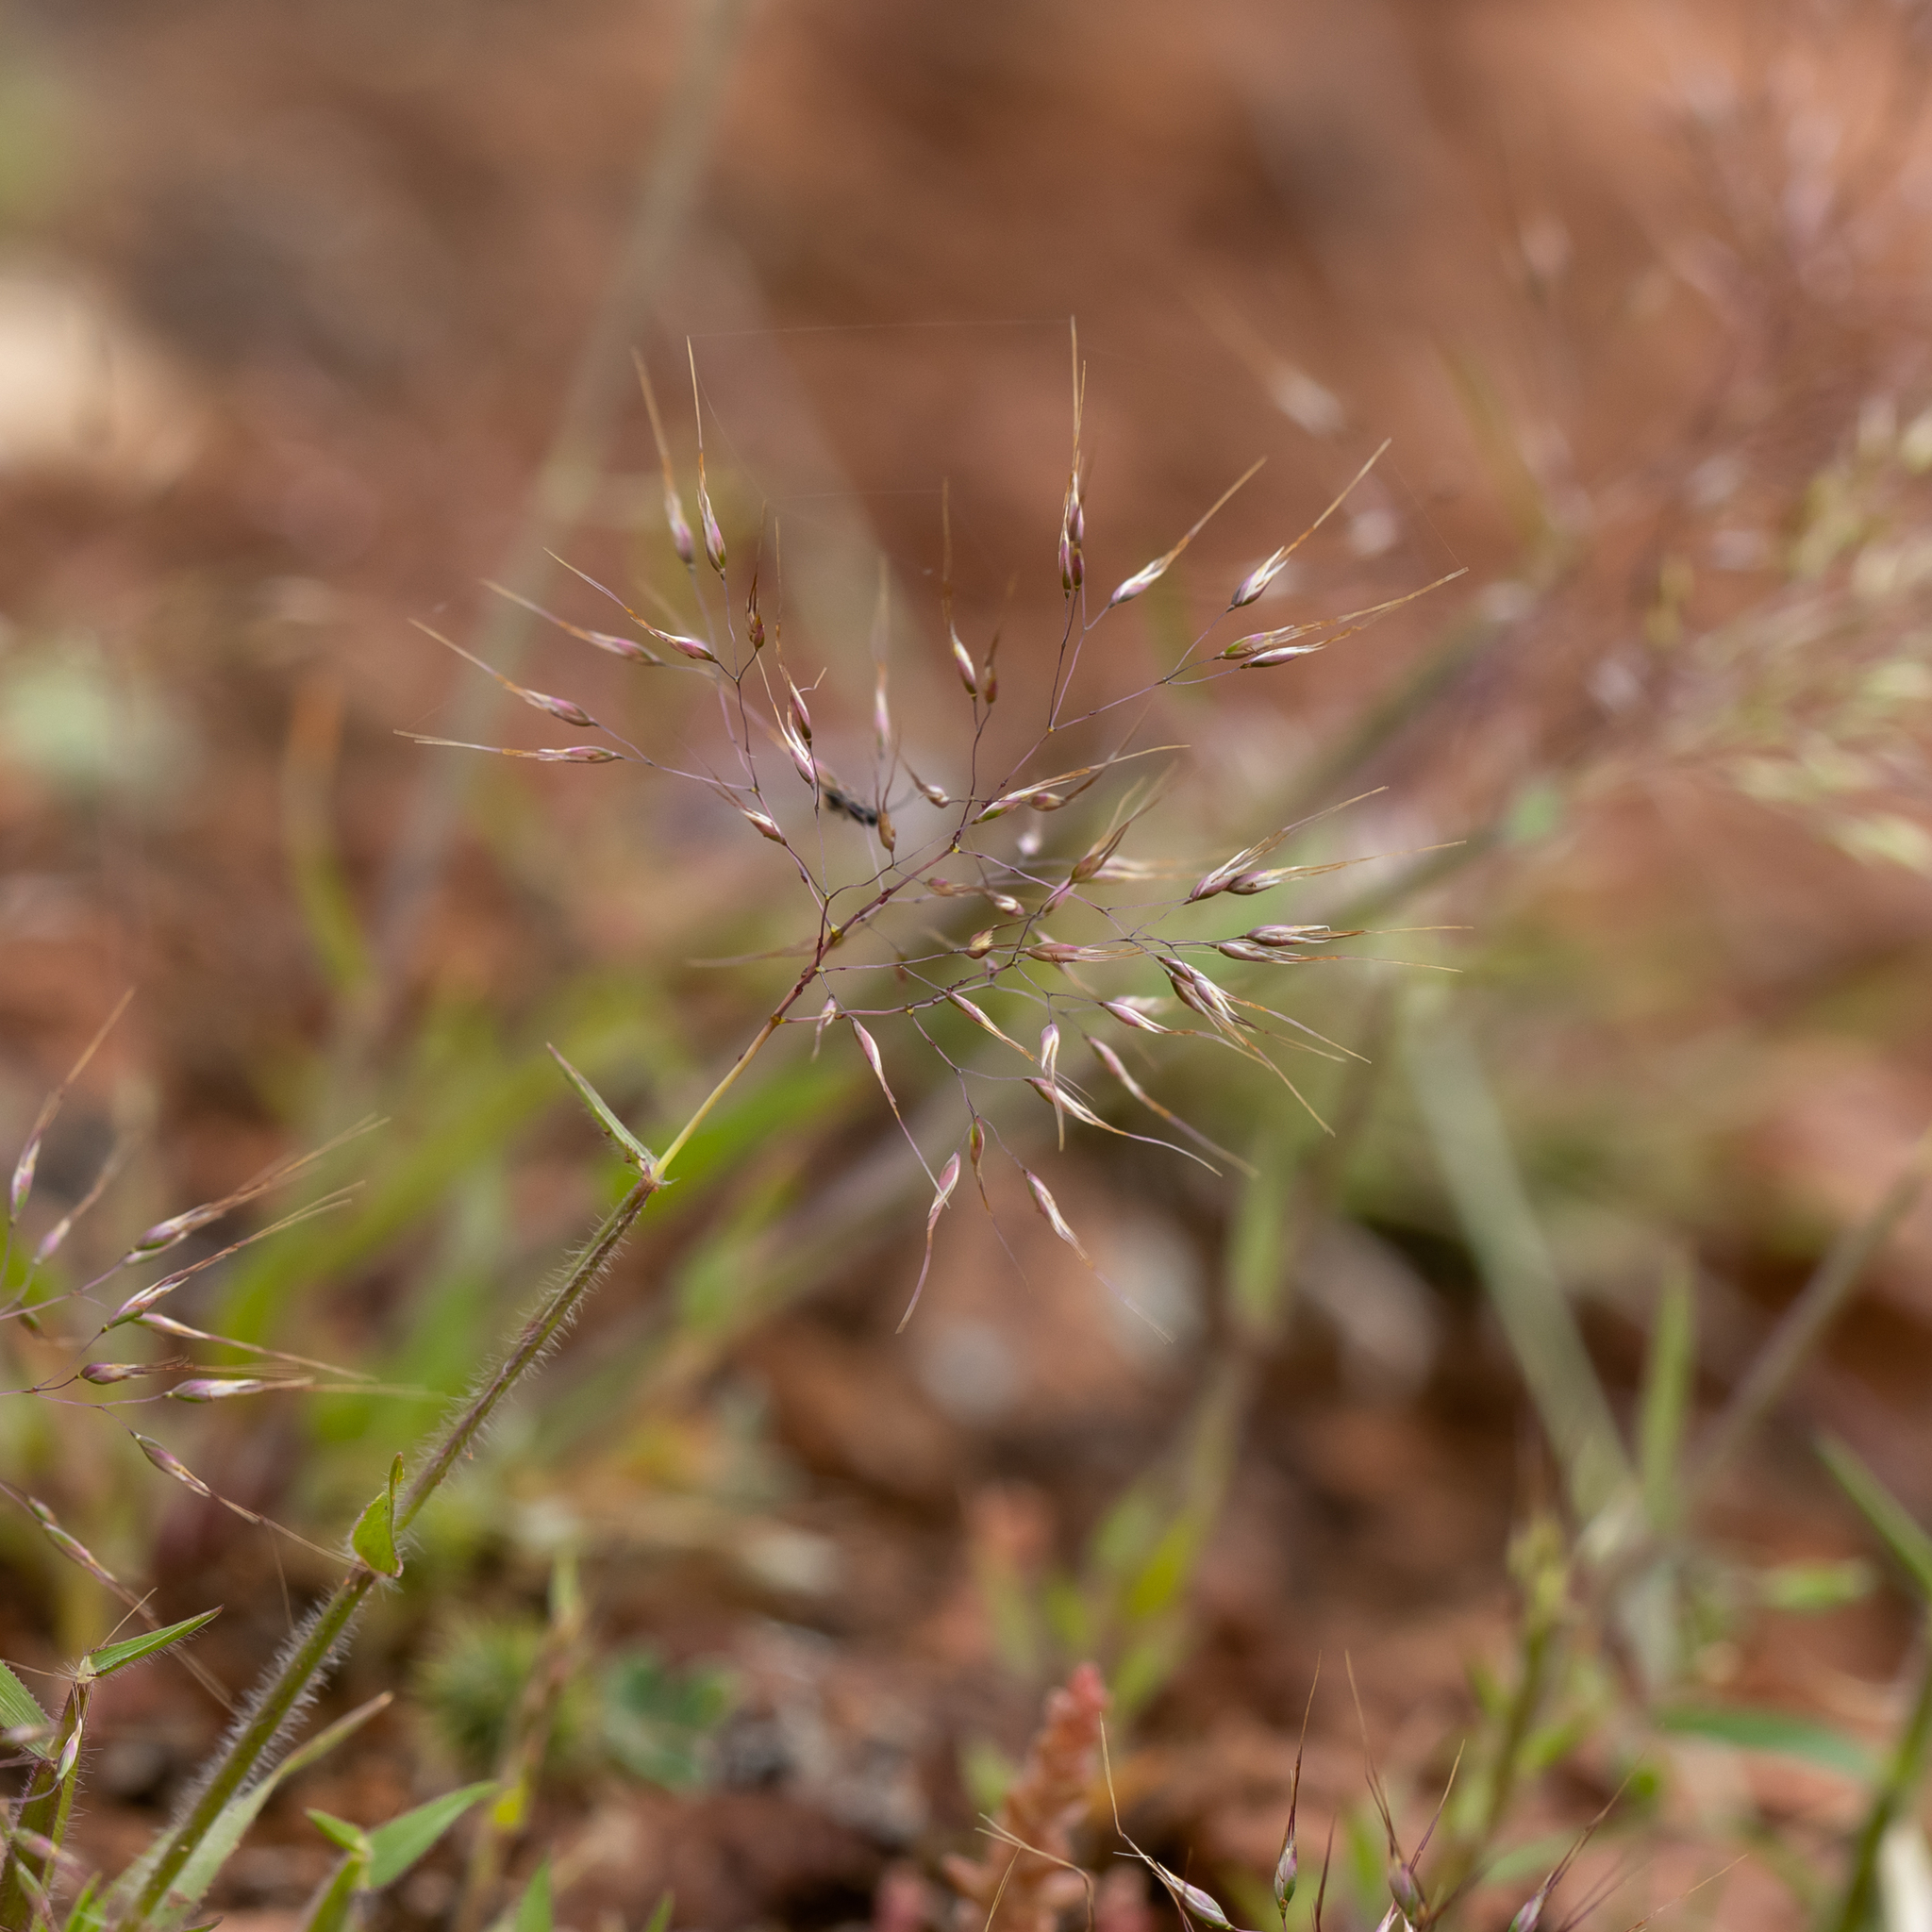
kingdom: Plantae
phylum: Tracheophyta
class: Liliopsida
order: Poales
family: Poaceae
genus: Pentameris
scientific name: Pentameris airoides
